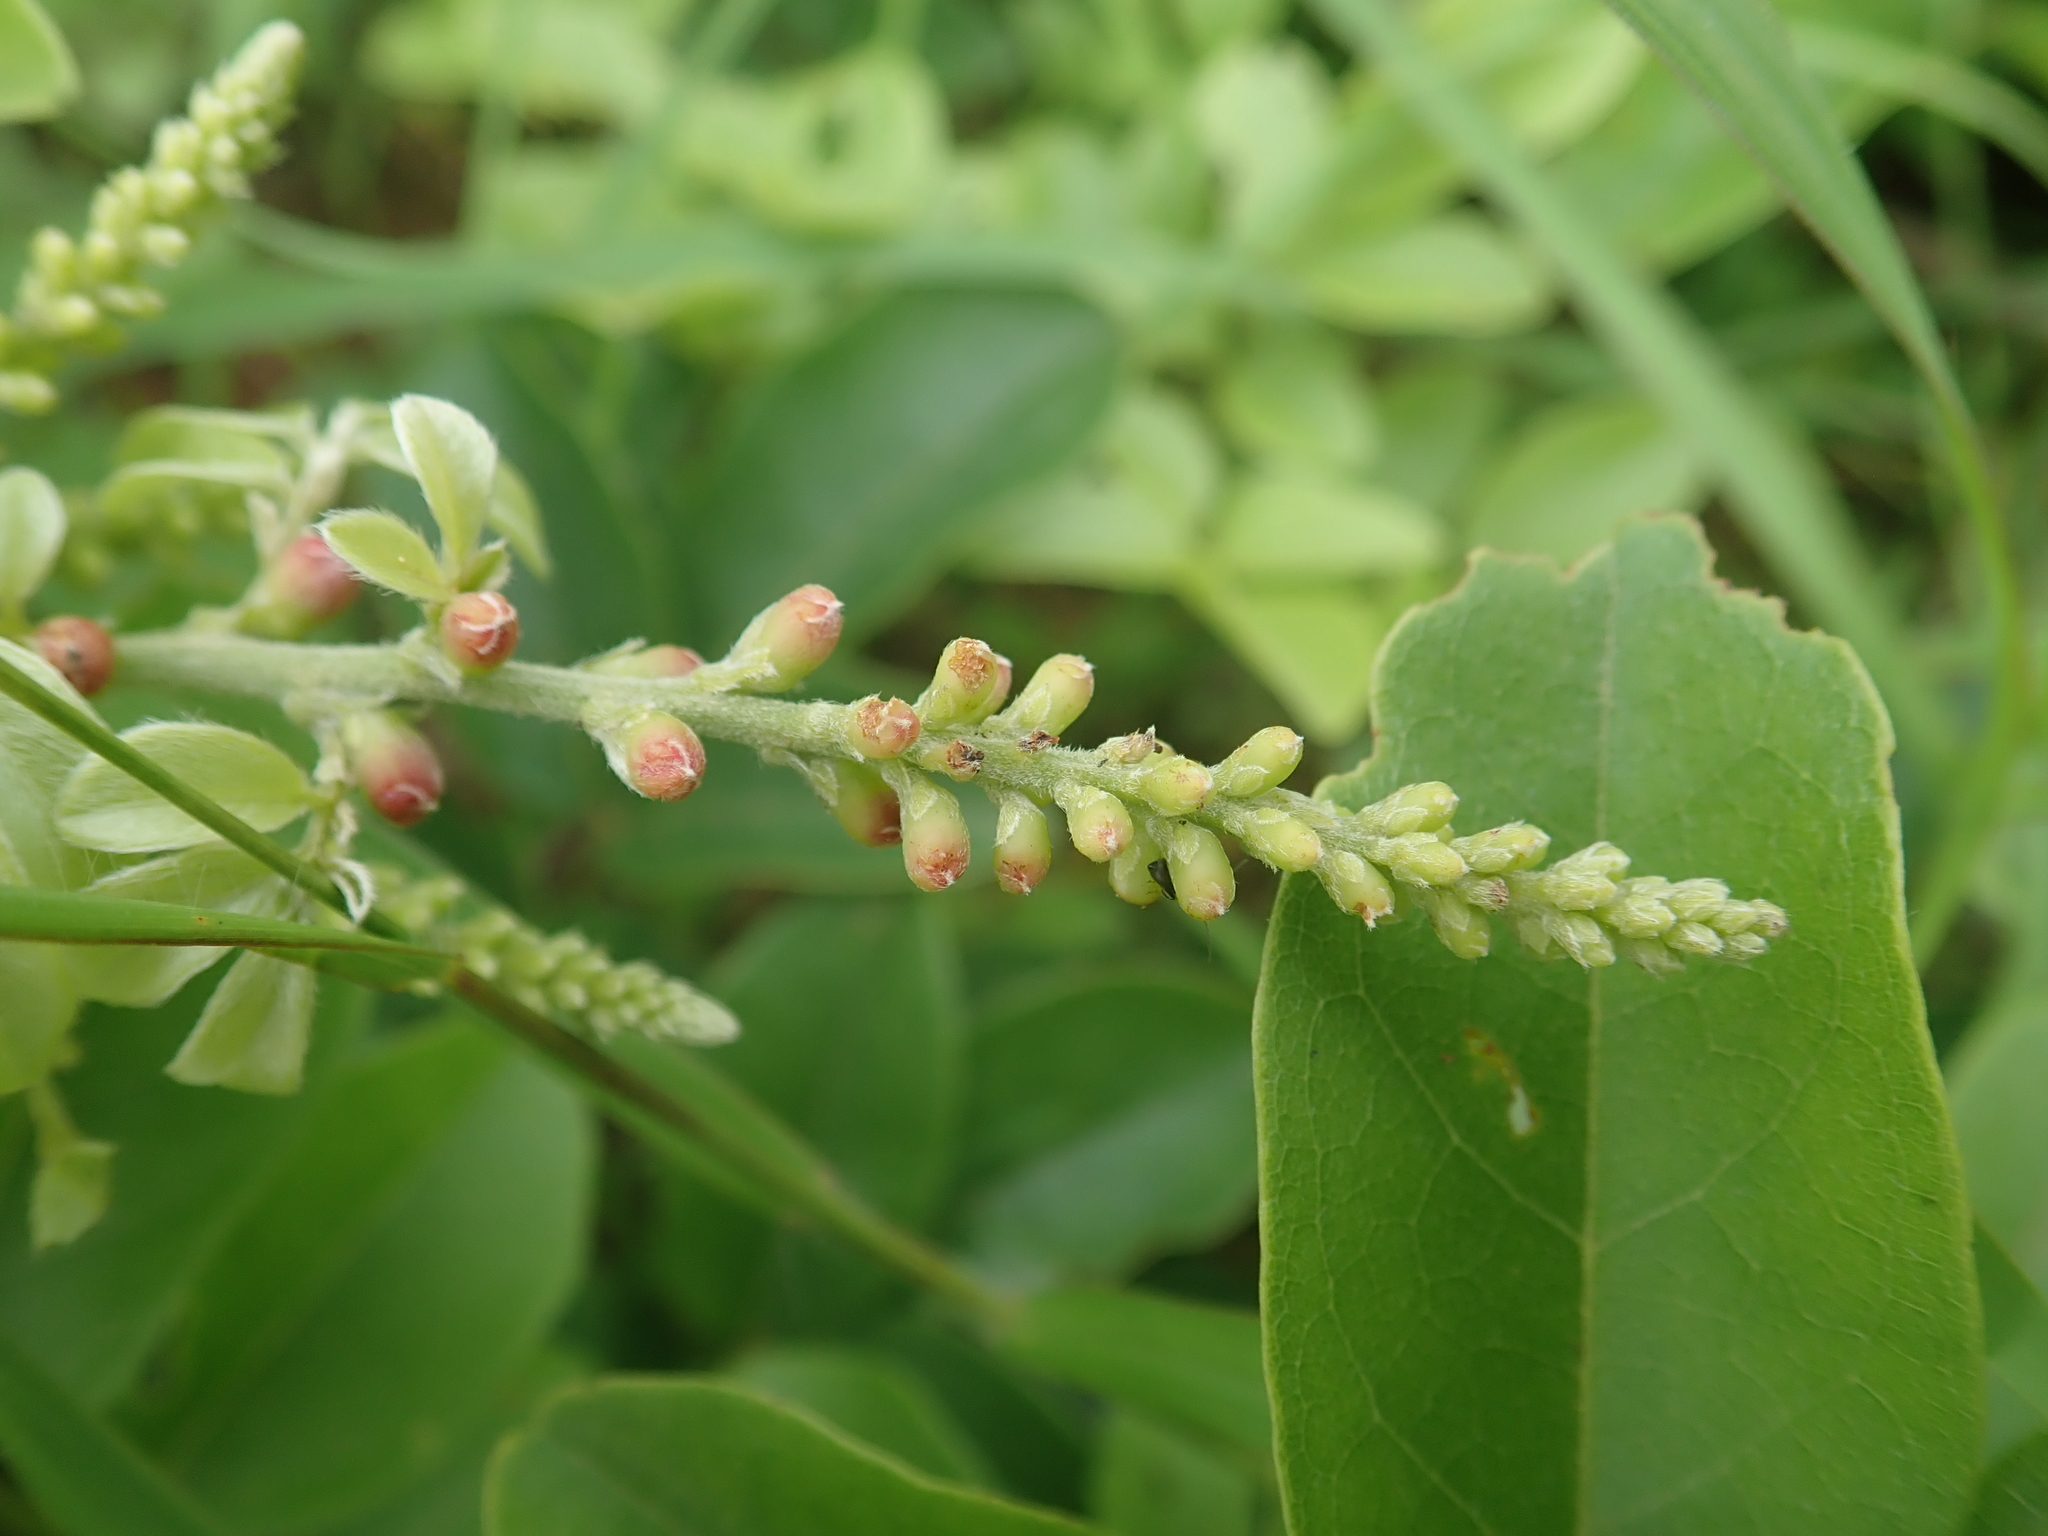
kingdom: Plantae
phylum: Tracheophyta
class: Magnoliopsida
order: Fabales
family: Fabaceae
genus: Wisteriopsis
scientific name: Wisteriopsis reticulata
